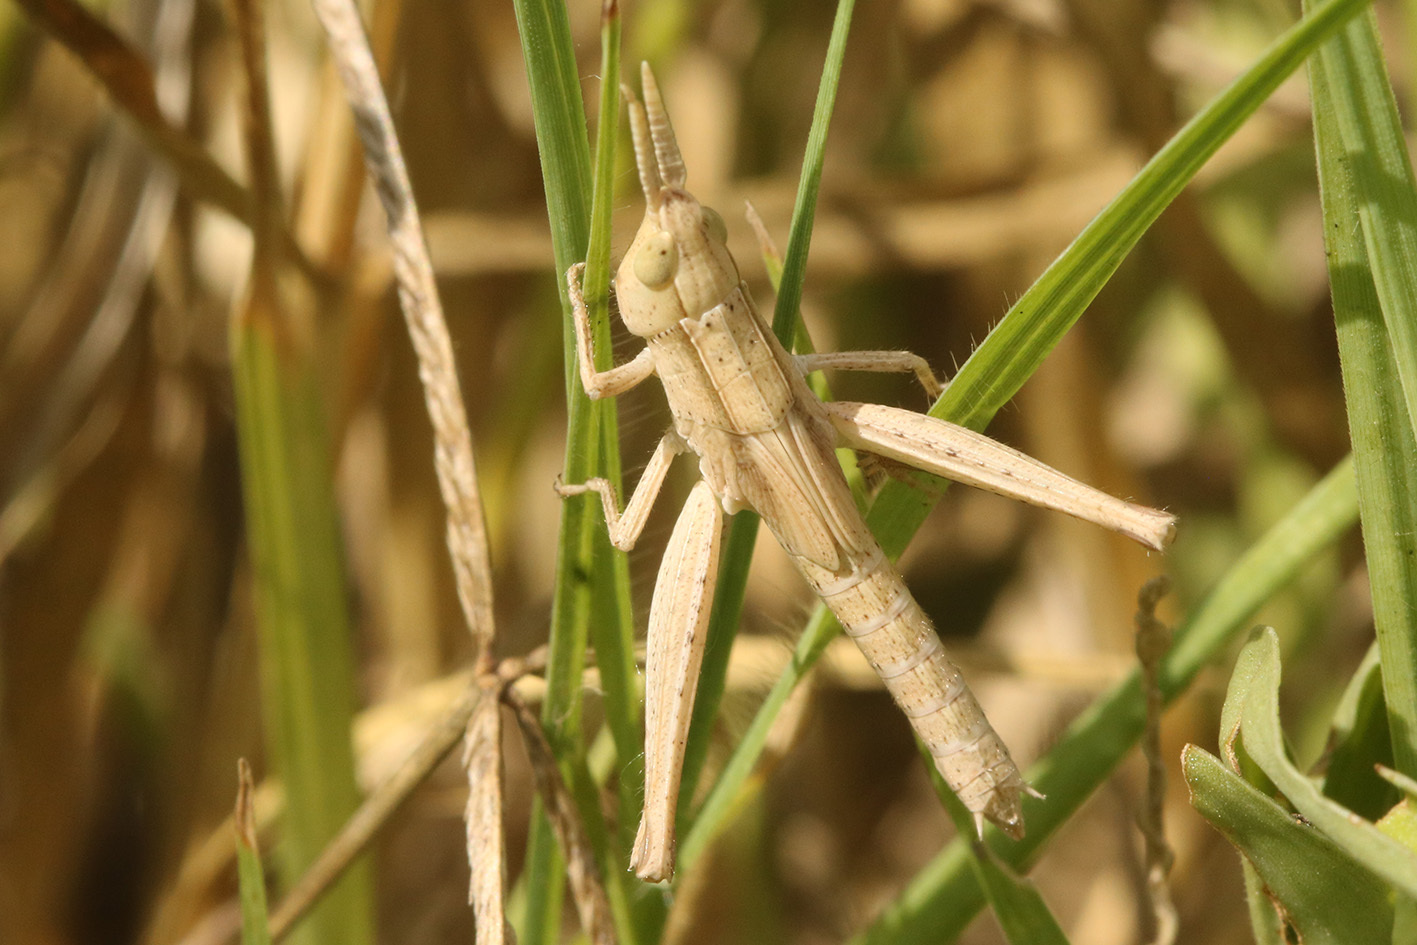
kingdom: Animalia
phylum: Arthropoda
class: Insecta
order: Orthoptera
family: Acrididae
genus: Laplatacris
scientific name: Laplatacris dispar
